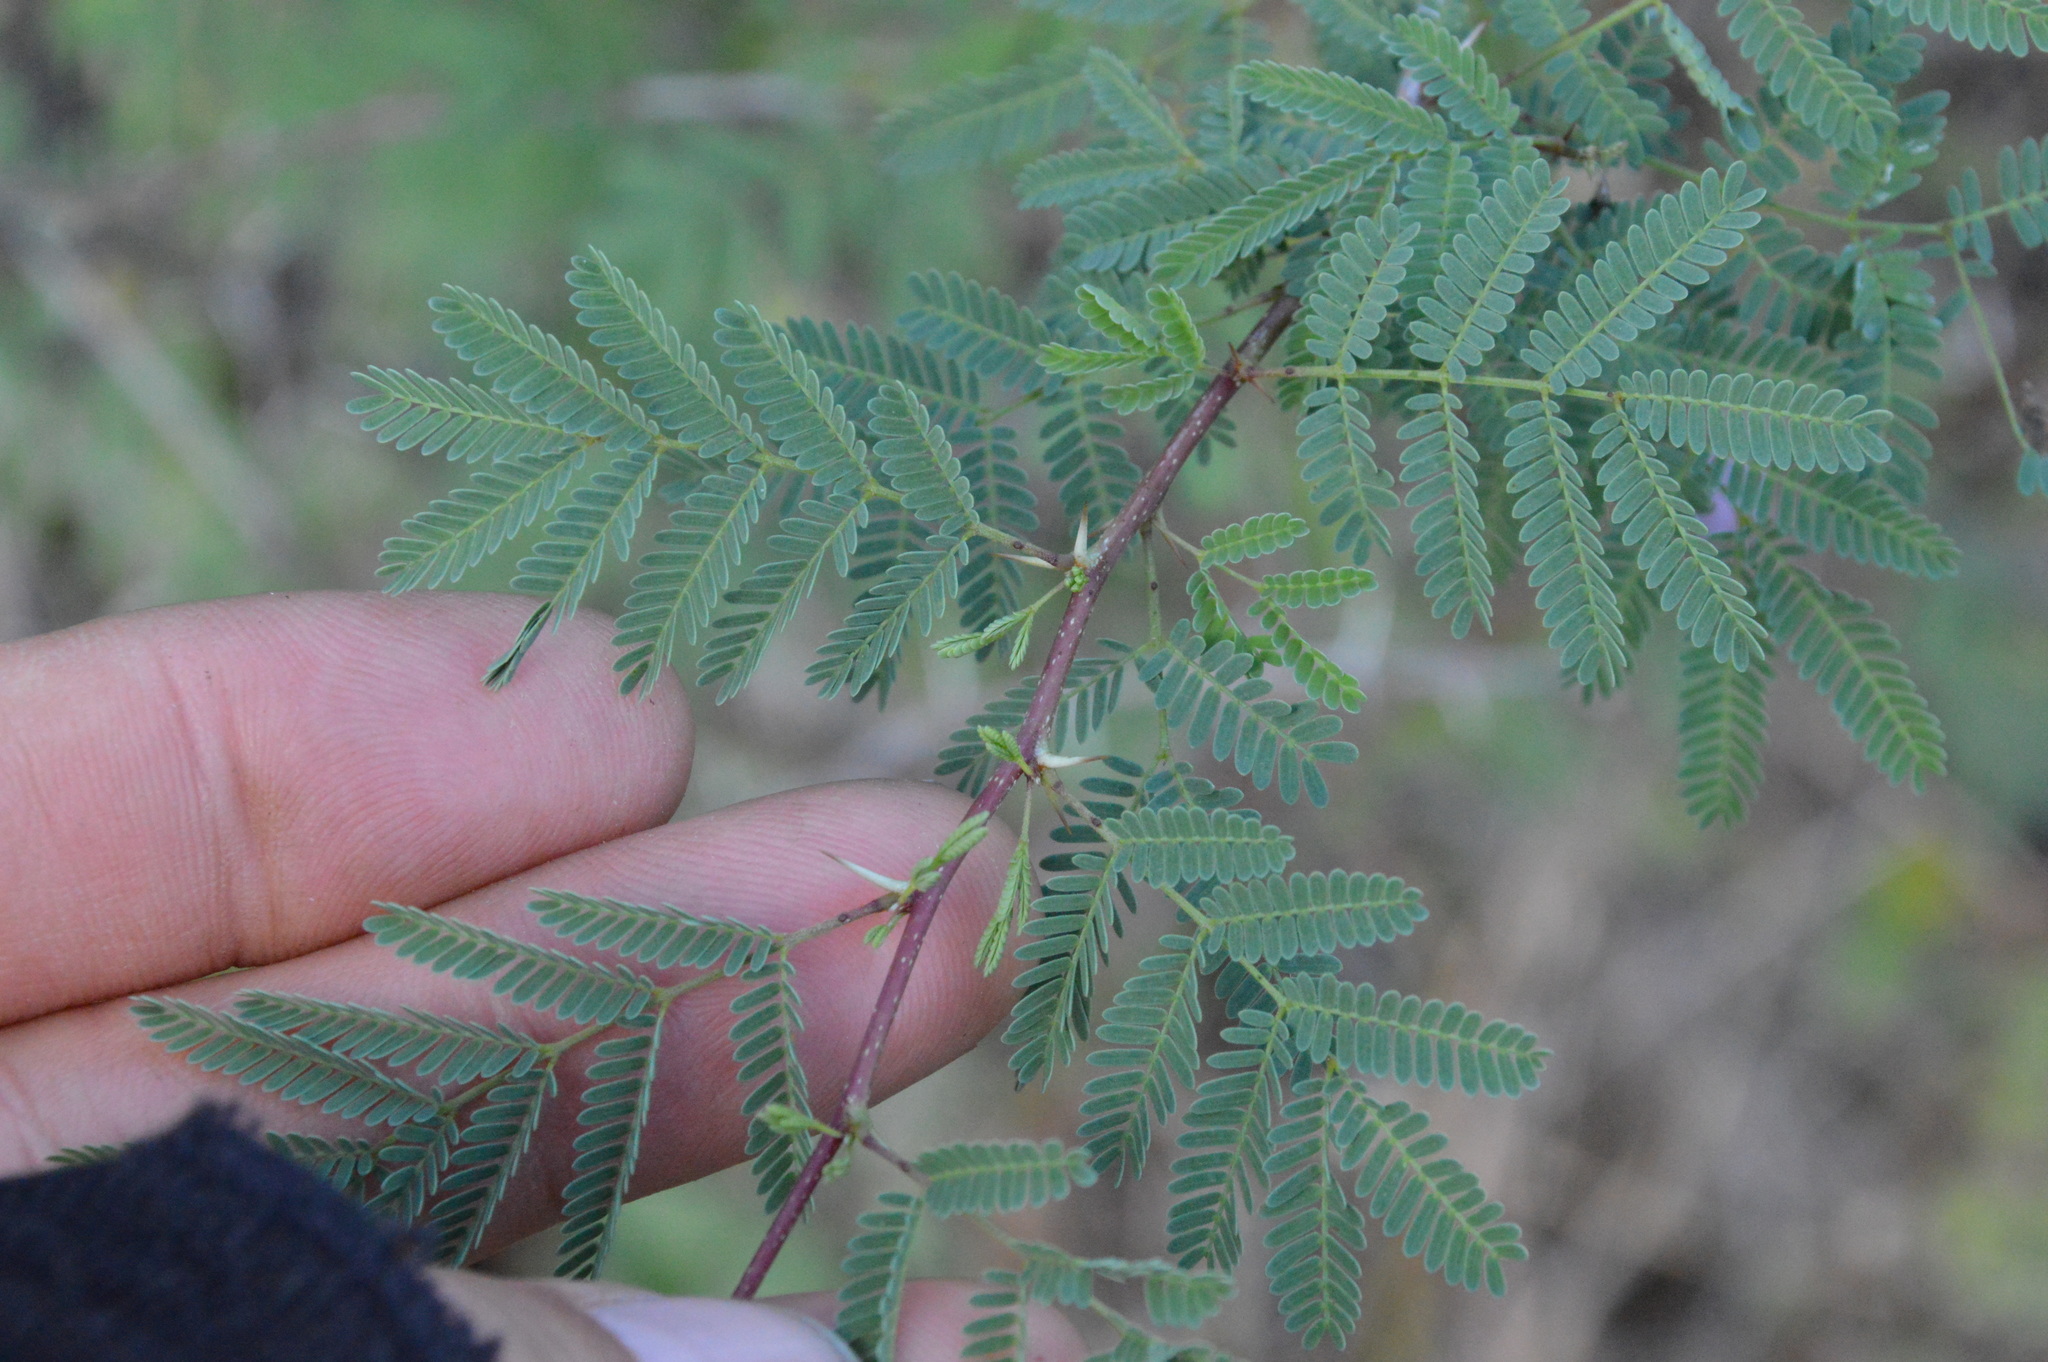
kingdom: Plantae
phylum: Tracheophyta
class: Magnoliopsida
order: Fabales
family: Fabaceae
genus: Vachellia
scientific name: Vachellia farnesiana
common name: Sweet acacia
